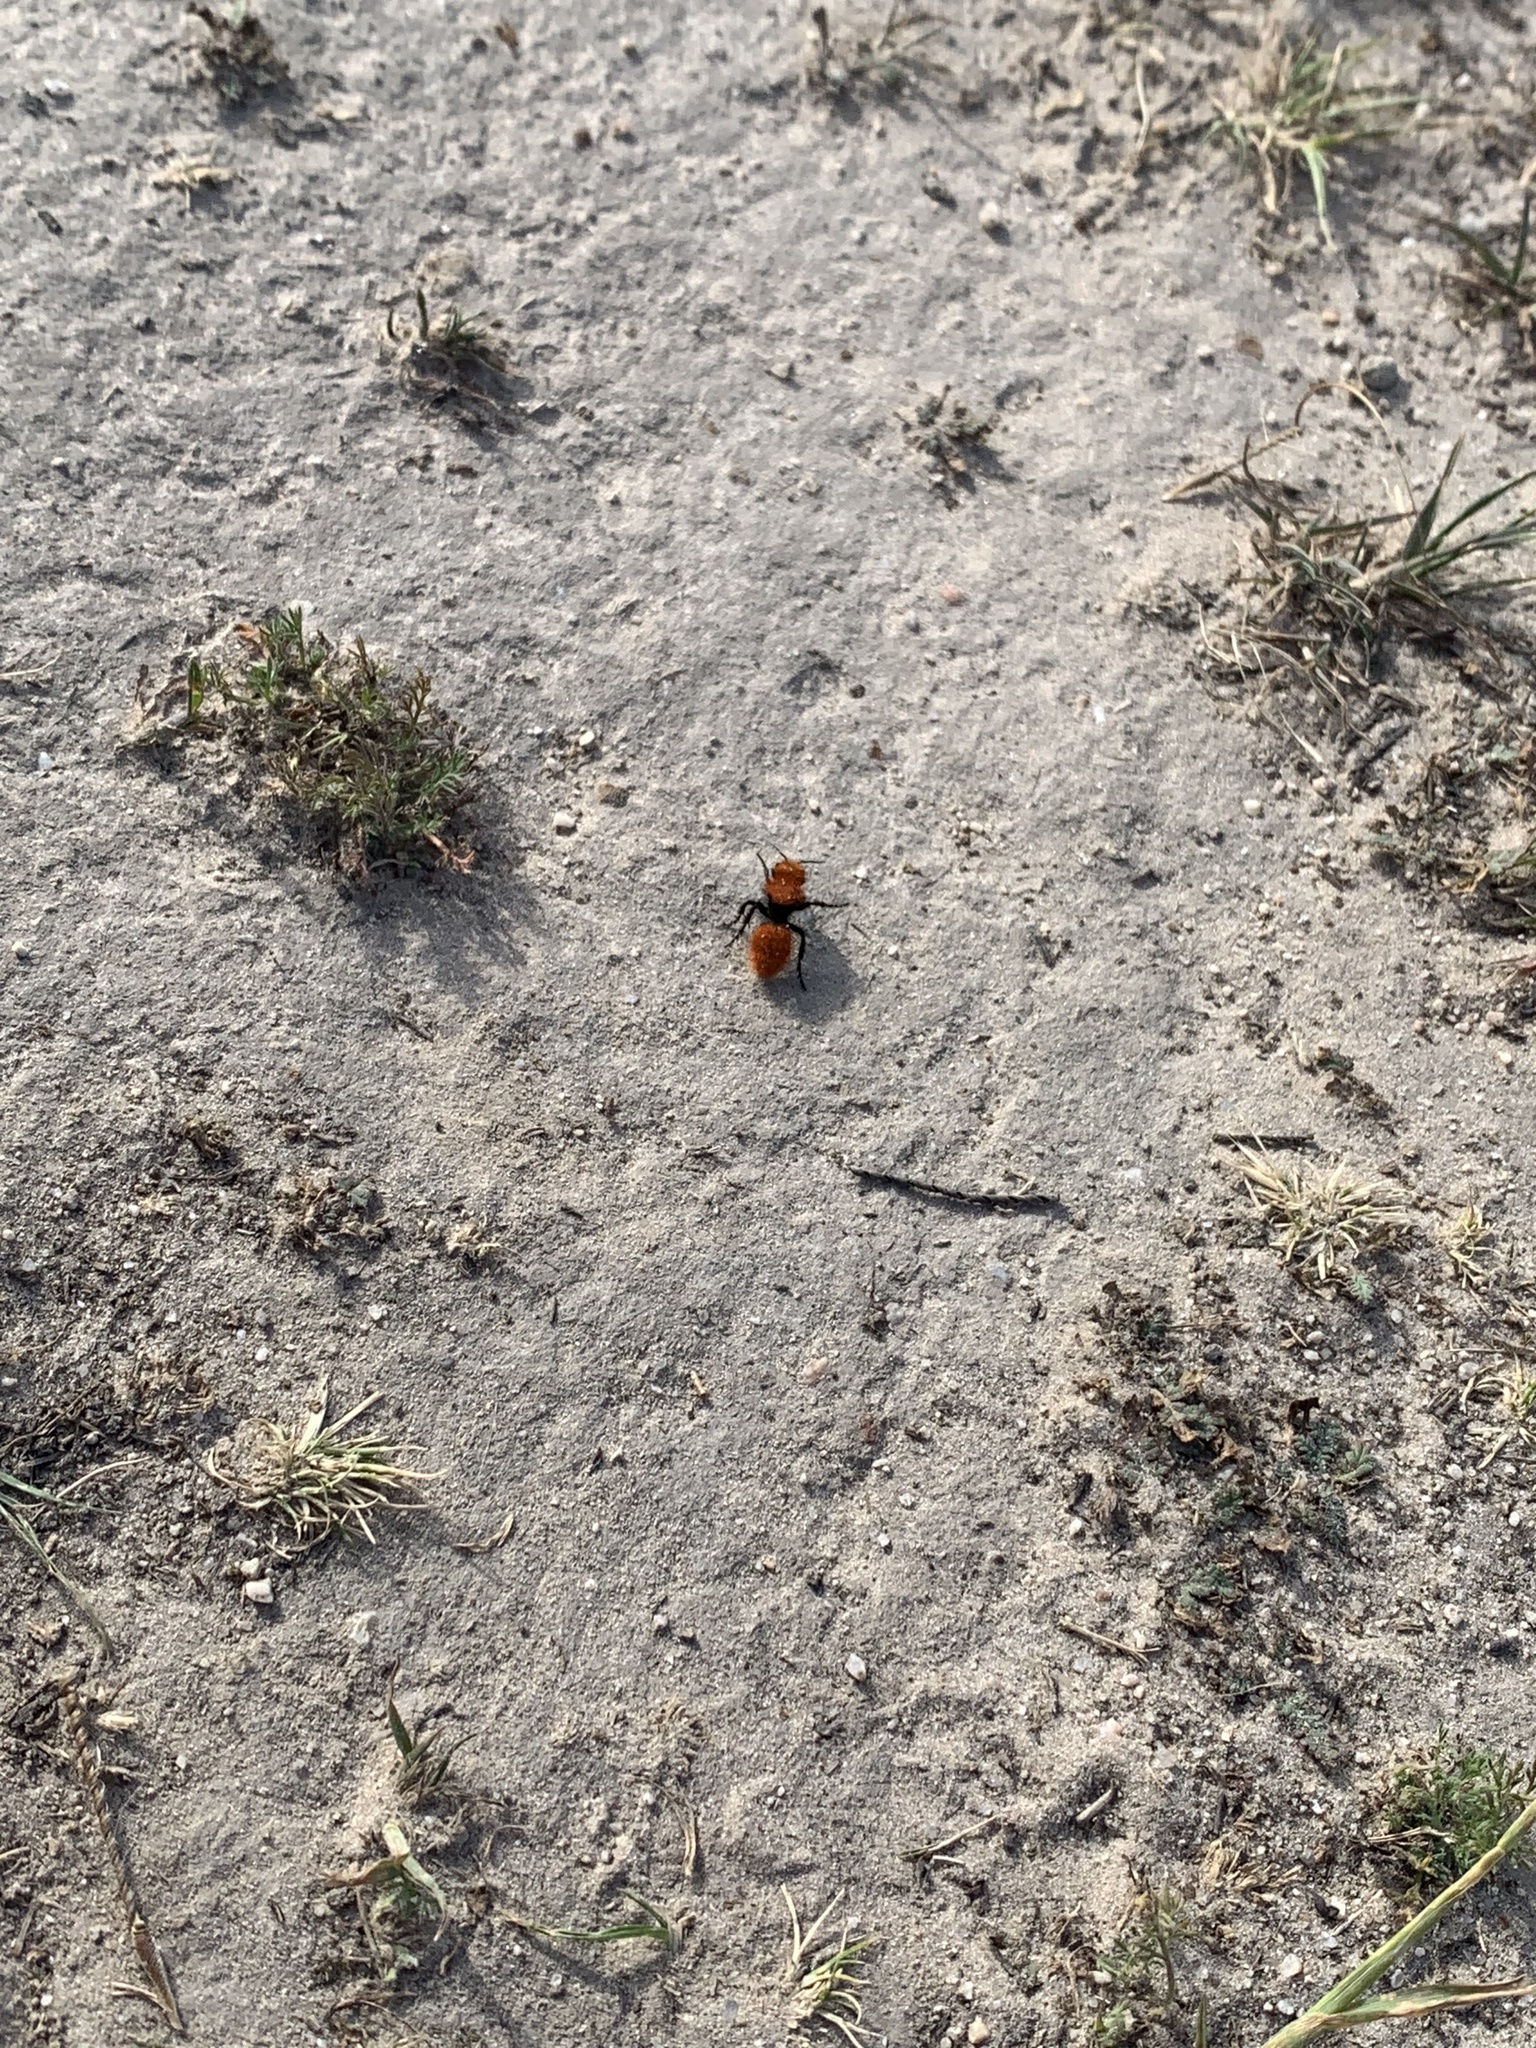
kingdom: Animalia
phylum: Arthropoda
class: Insecta
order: Hymenoptera
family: Mutillidae
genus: Dasymutilla
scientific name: Dasymutilla
